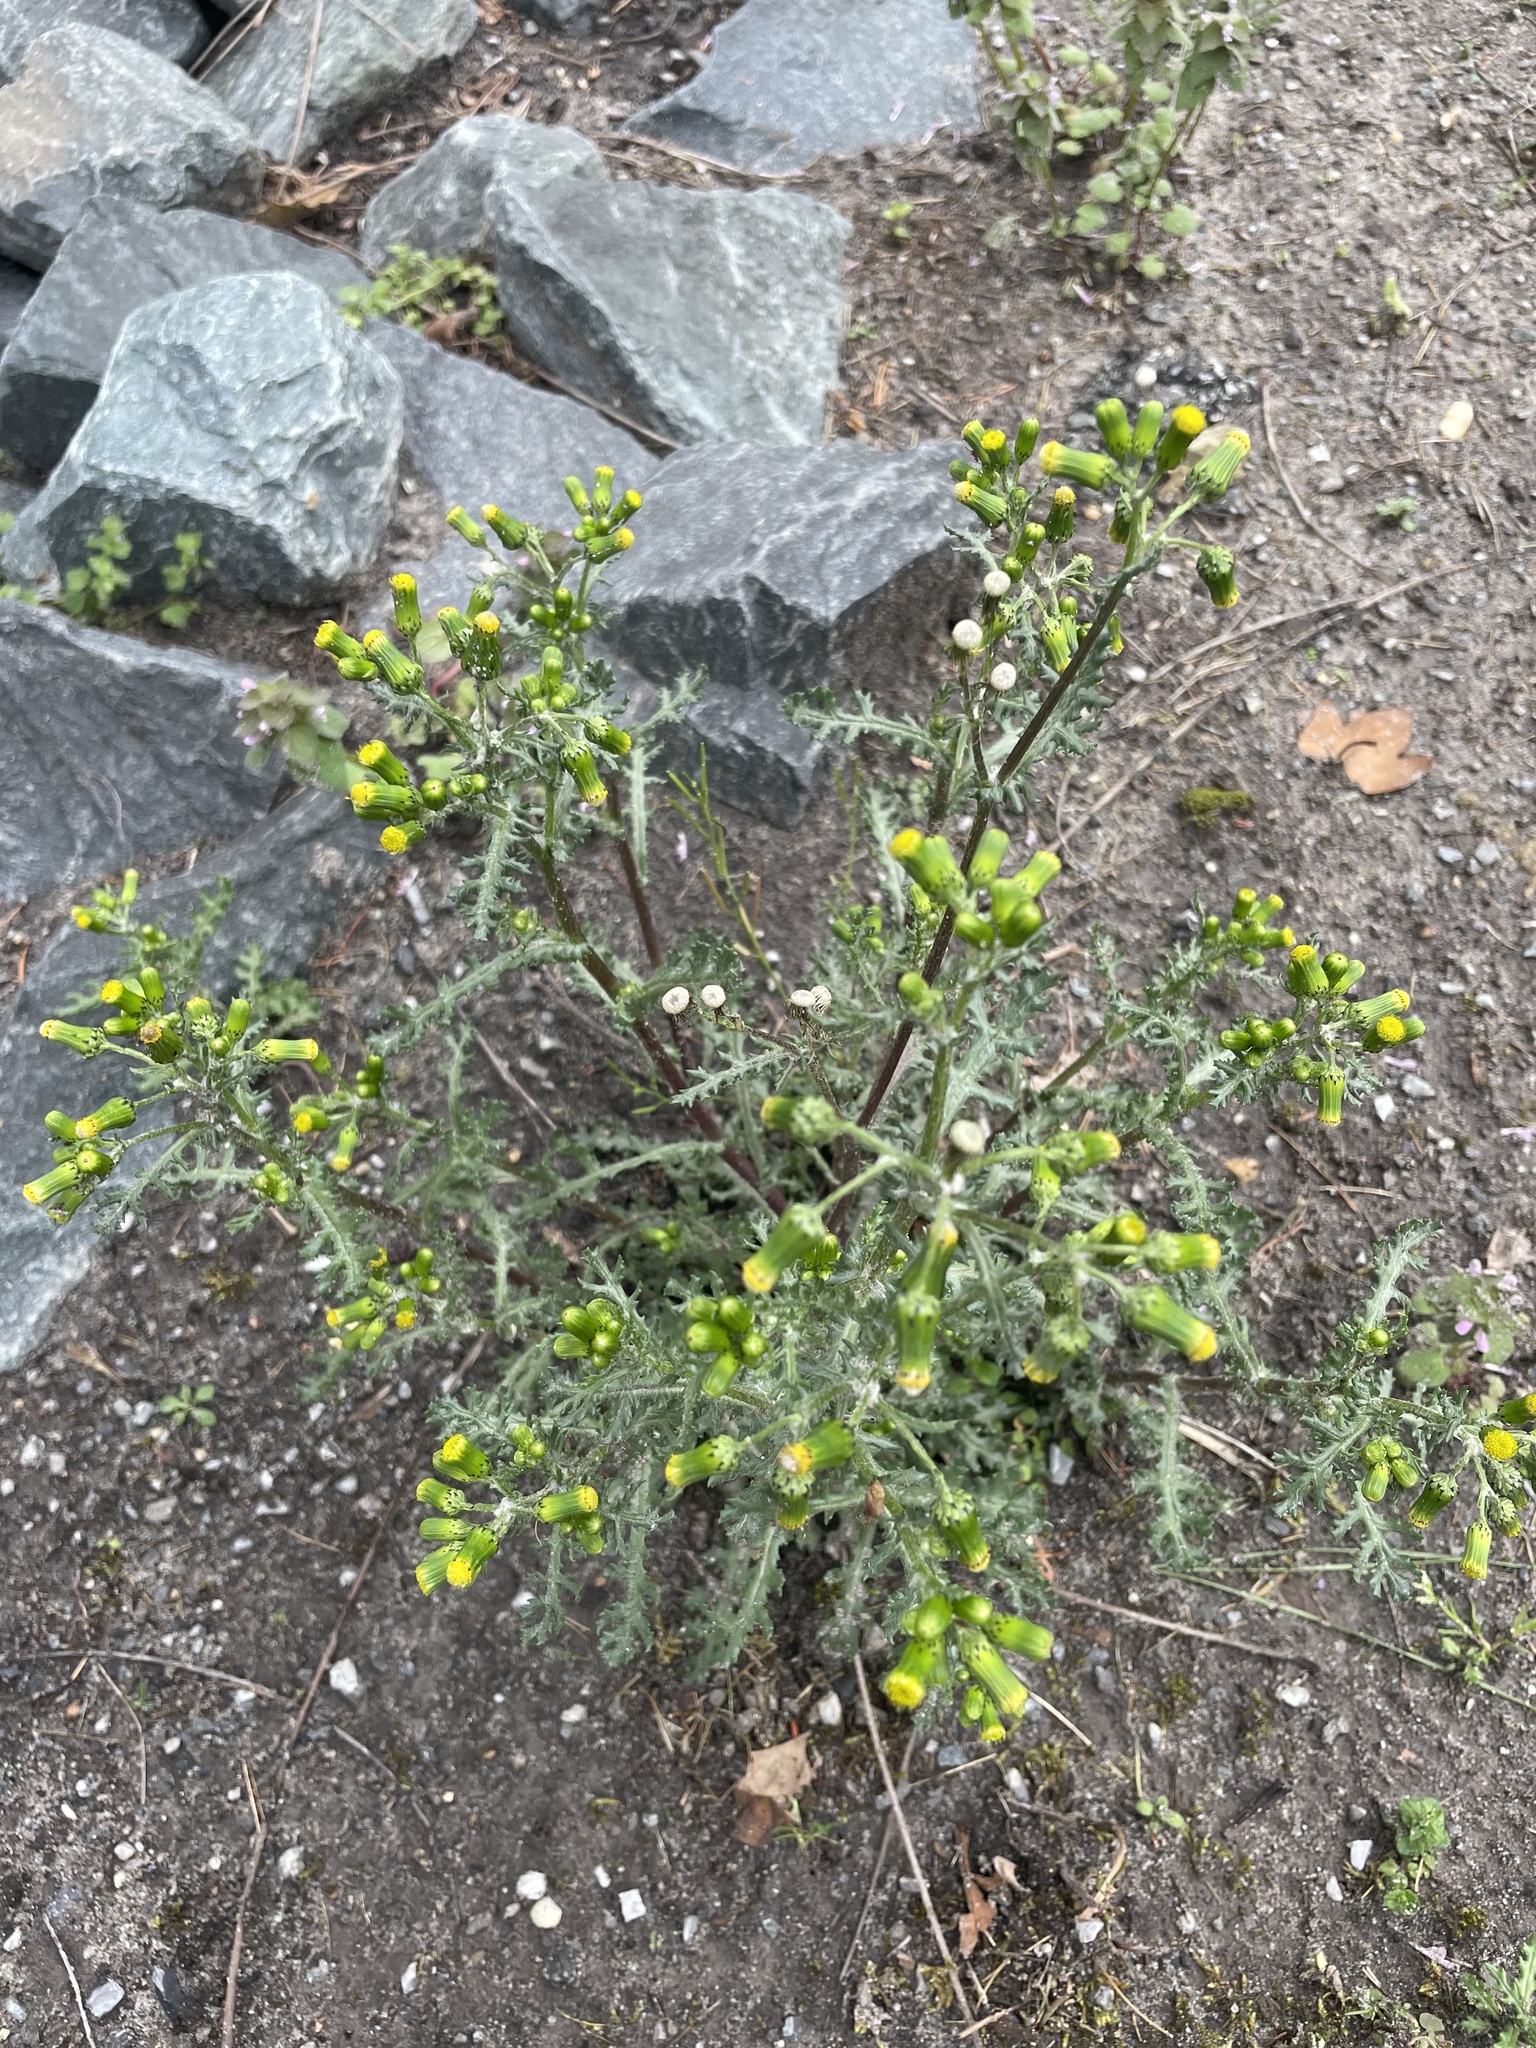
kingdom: Plantae
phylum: Tracheophyta
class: Magnoliopsida
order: Asterales
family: Asteraceae
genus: Senecio
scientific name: Senecio vulgaris
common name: Old-man-in-the-spring
